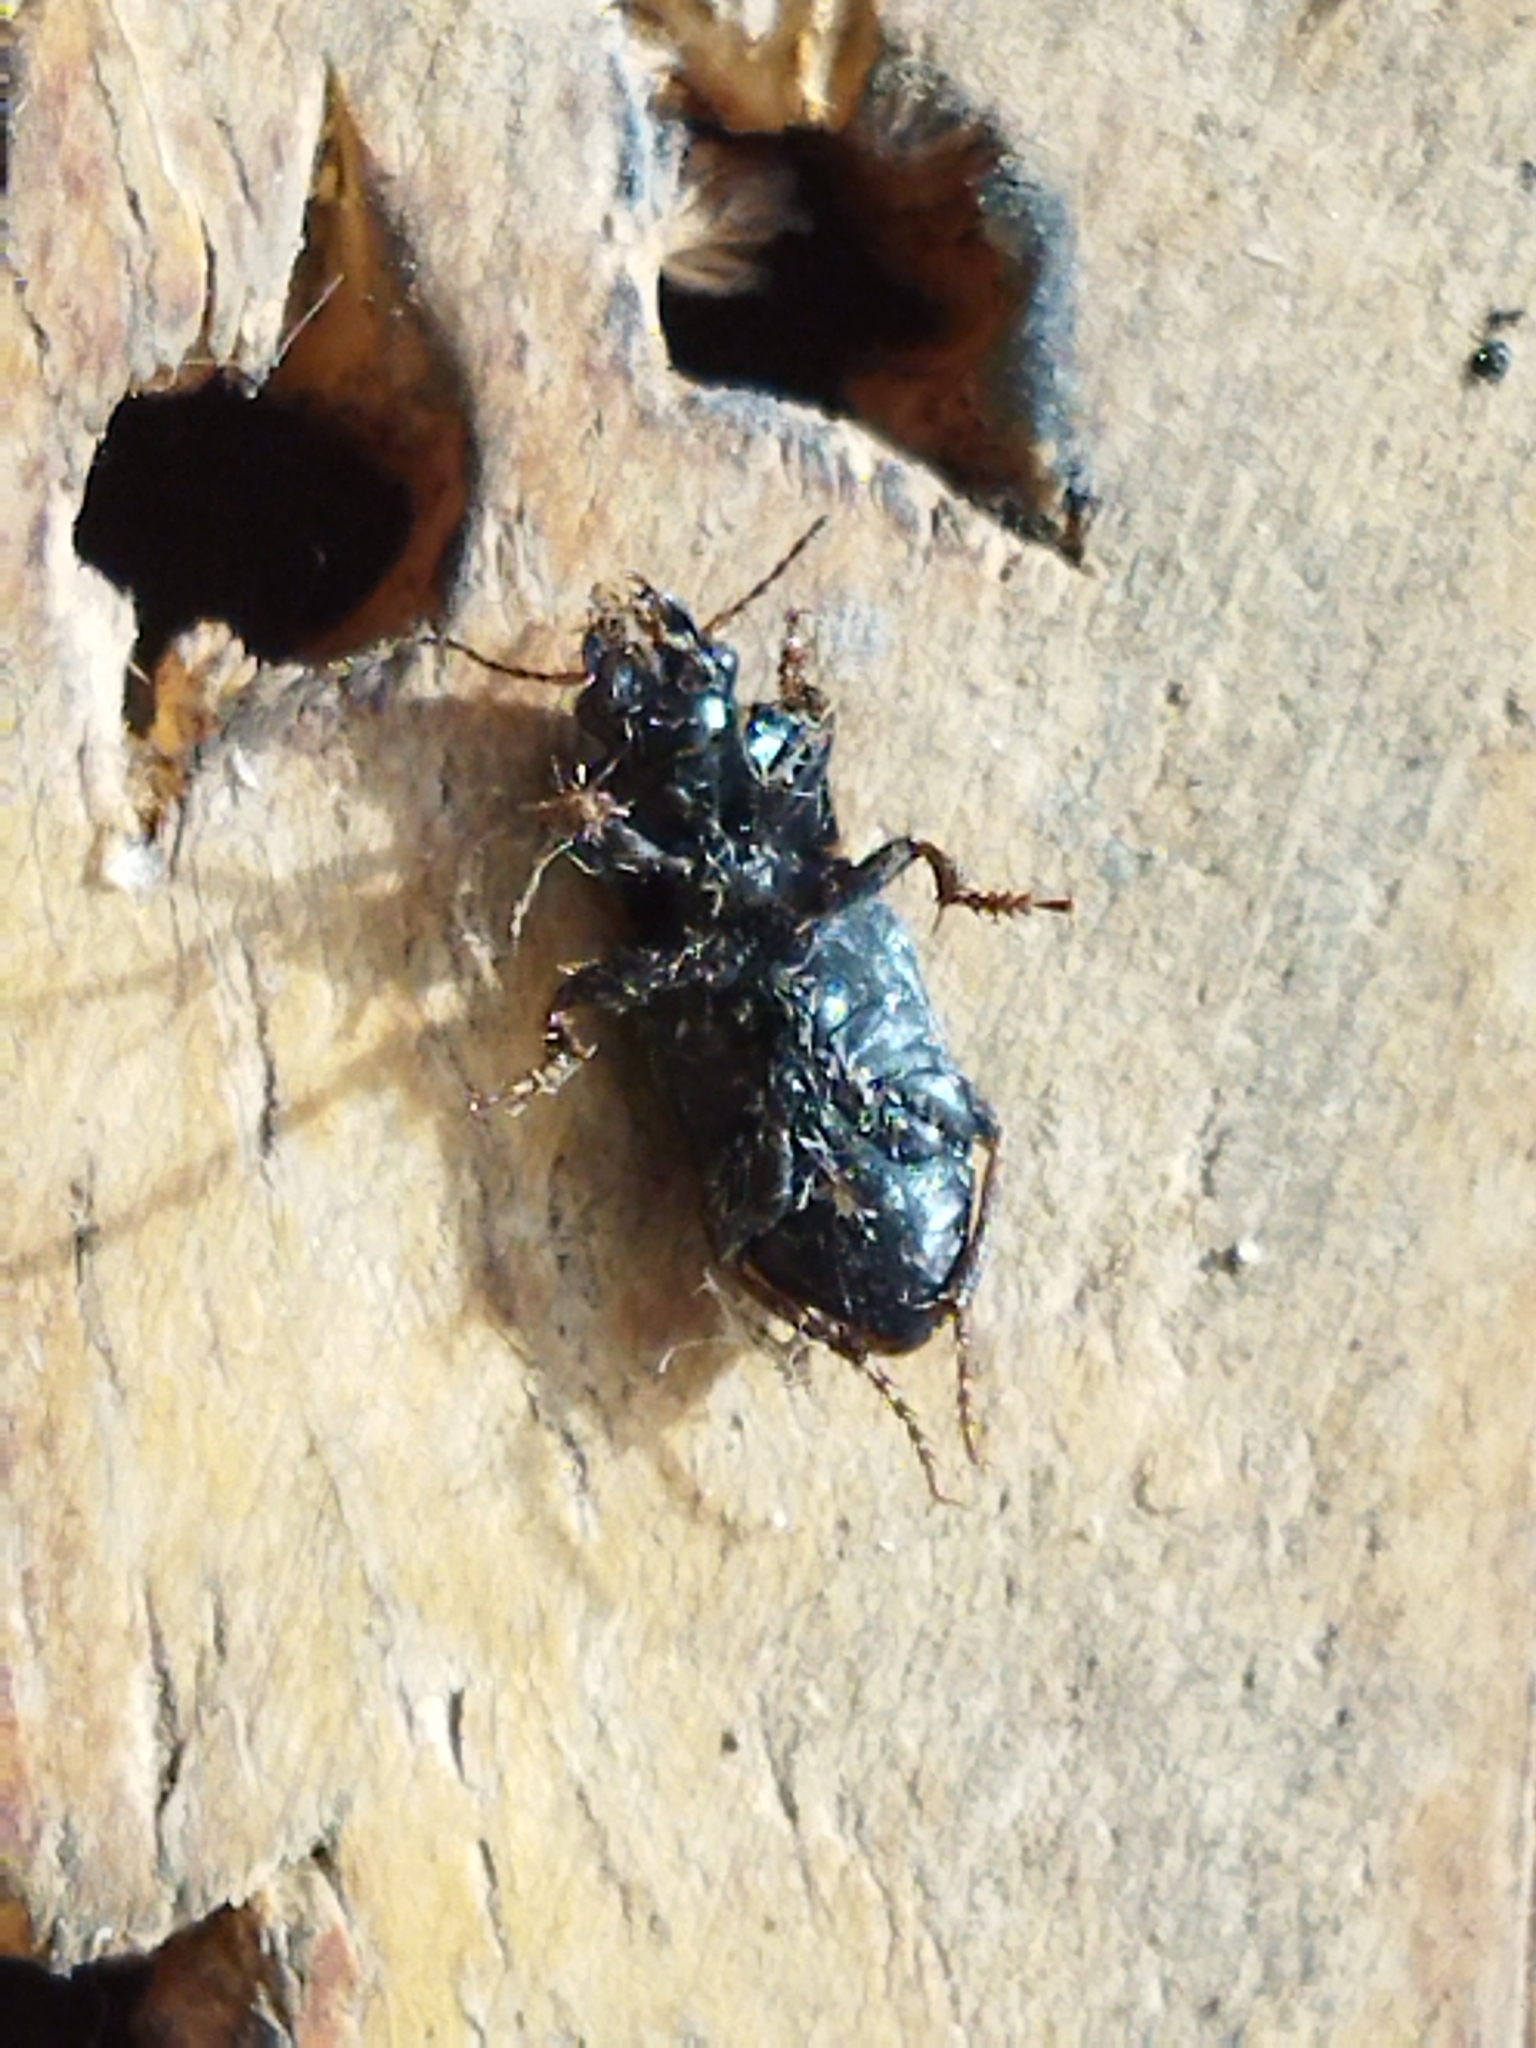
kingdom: Animalia
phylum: Arthropoda
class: Insecta
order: Coleoptera
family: Carabidae
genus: Harpalus
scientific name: Harpalus
